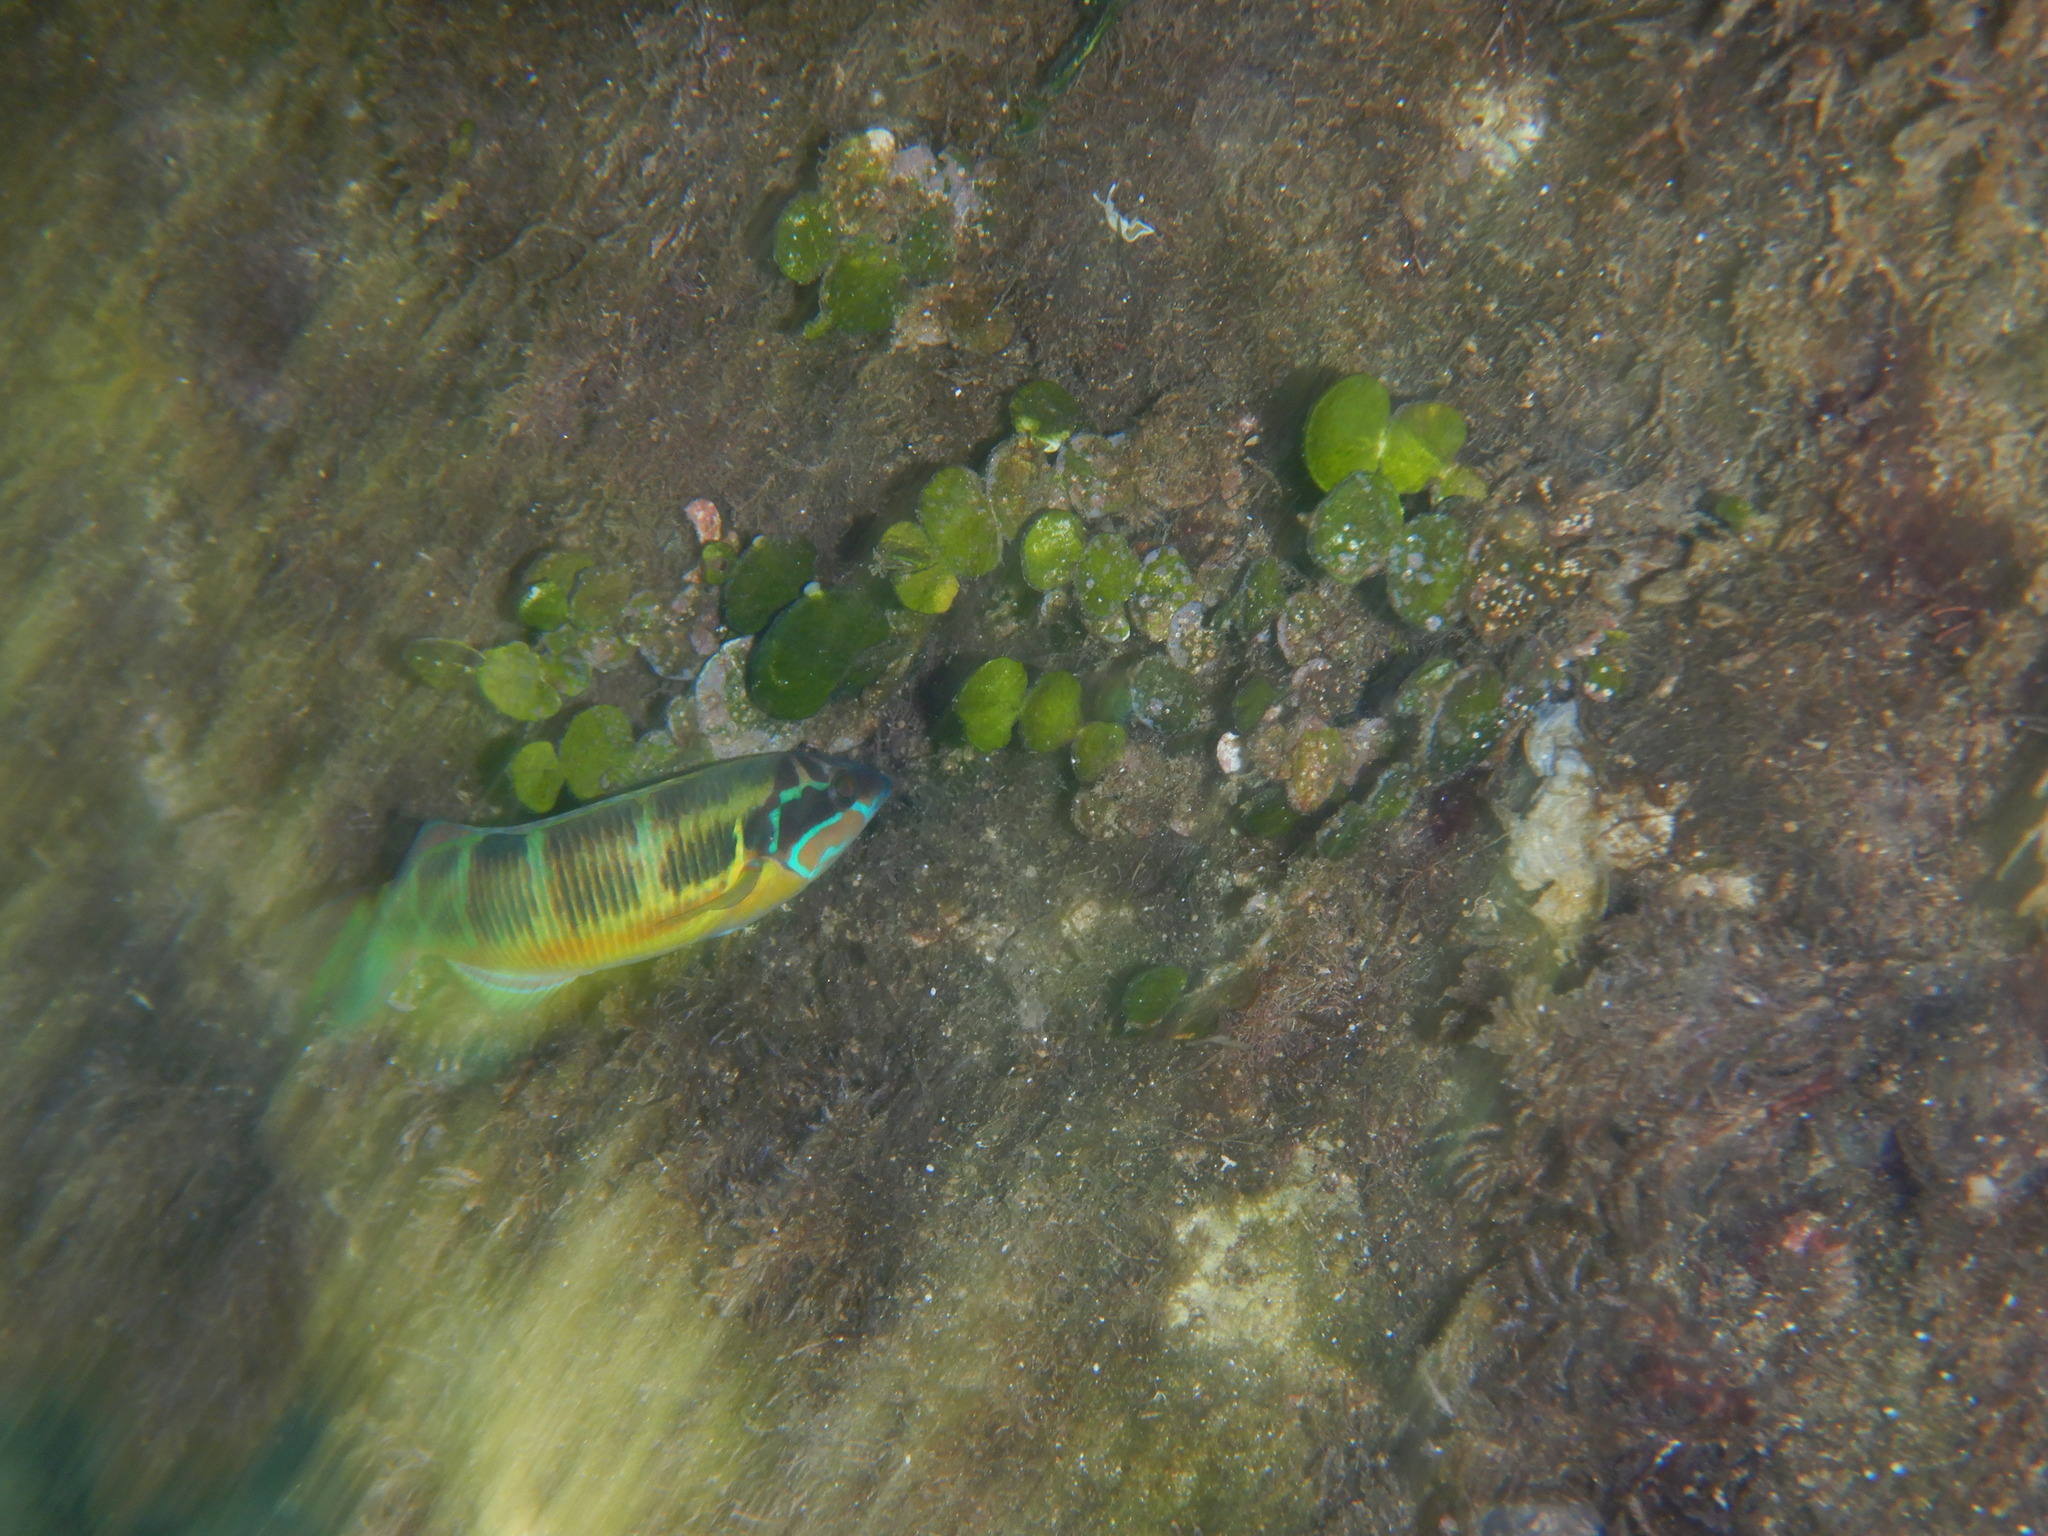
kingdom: Animalia
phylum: Chordata
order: Perciformes
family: Labridae
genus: Thalassoma
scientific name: Thalassoma pavo
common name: Ornate wrasse
